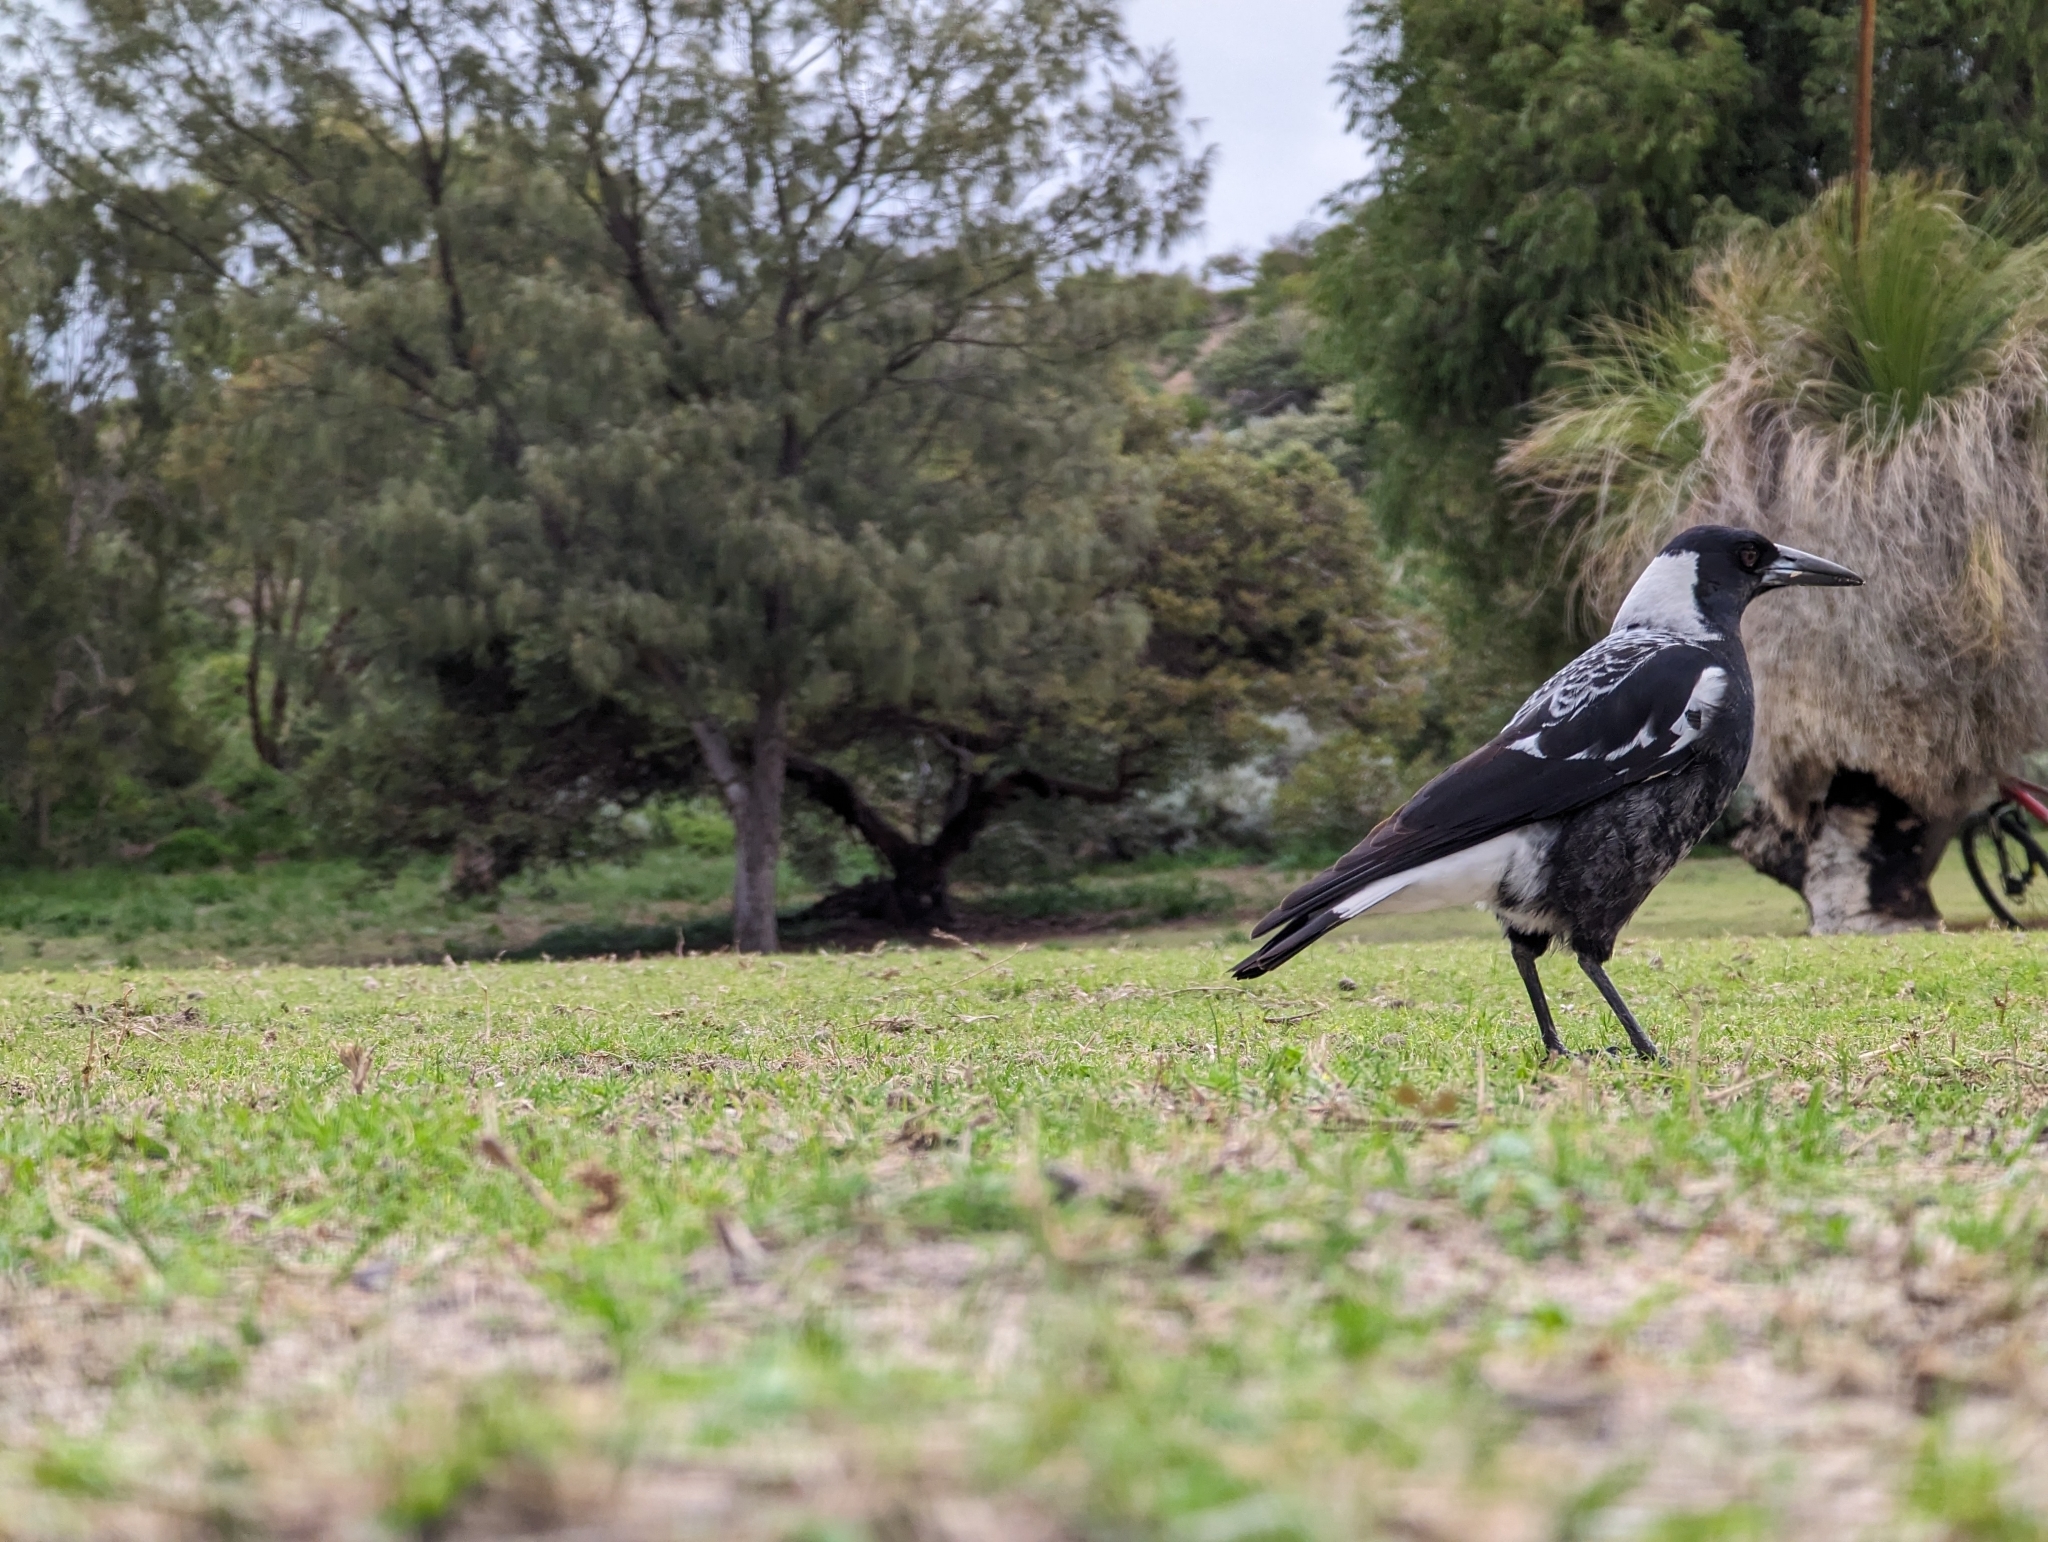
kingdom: Animalia
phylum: Chordata
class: Aves
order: Passeriformes
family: Cracticidae
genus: Gymnorhina
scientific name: Gymnorhina tibicen
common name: Australian magpie
